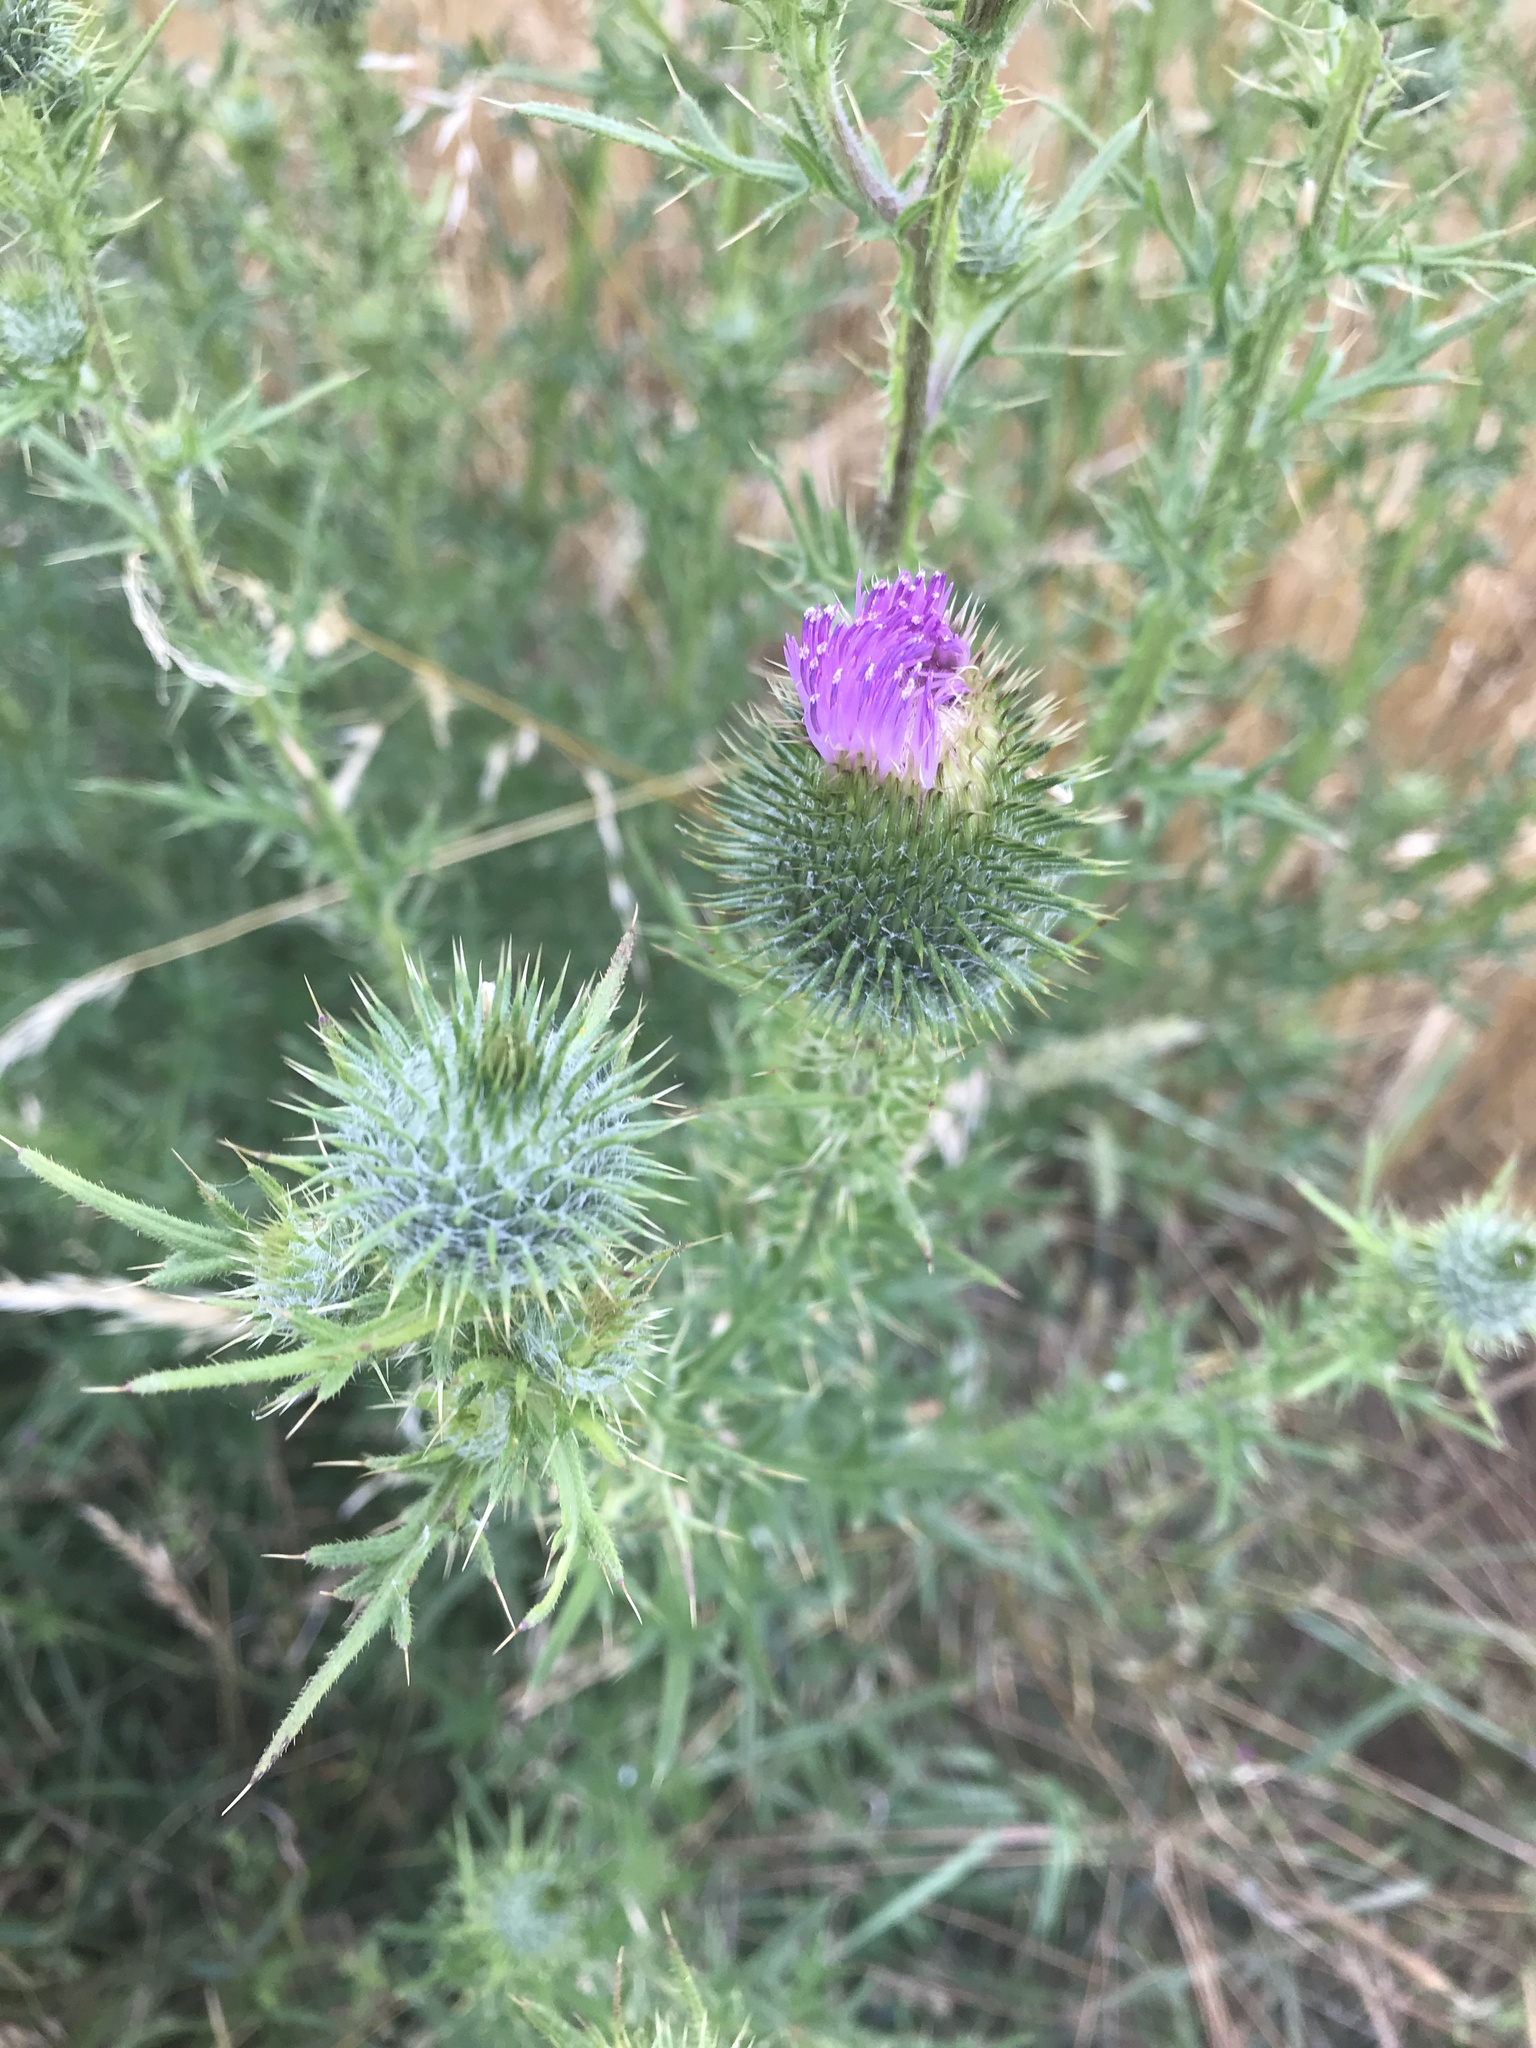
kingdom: Plantae
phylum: Tracheophyta
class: Magnoliopsida
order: Asterales
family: Asteraceae
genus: Cirsium
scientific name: Cirsium vulgare
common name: Bull thistle
